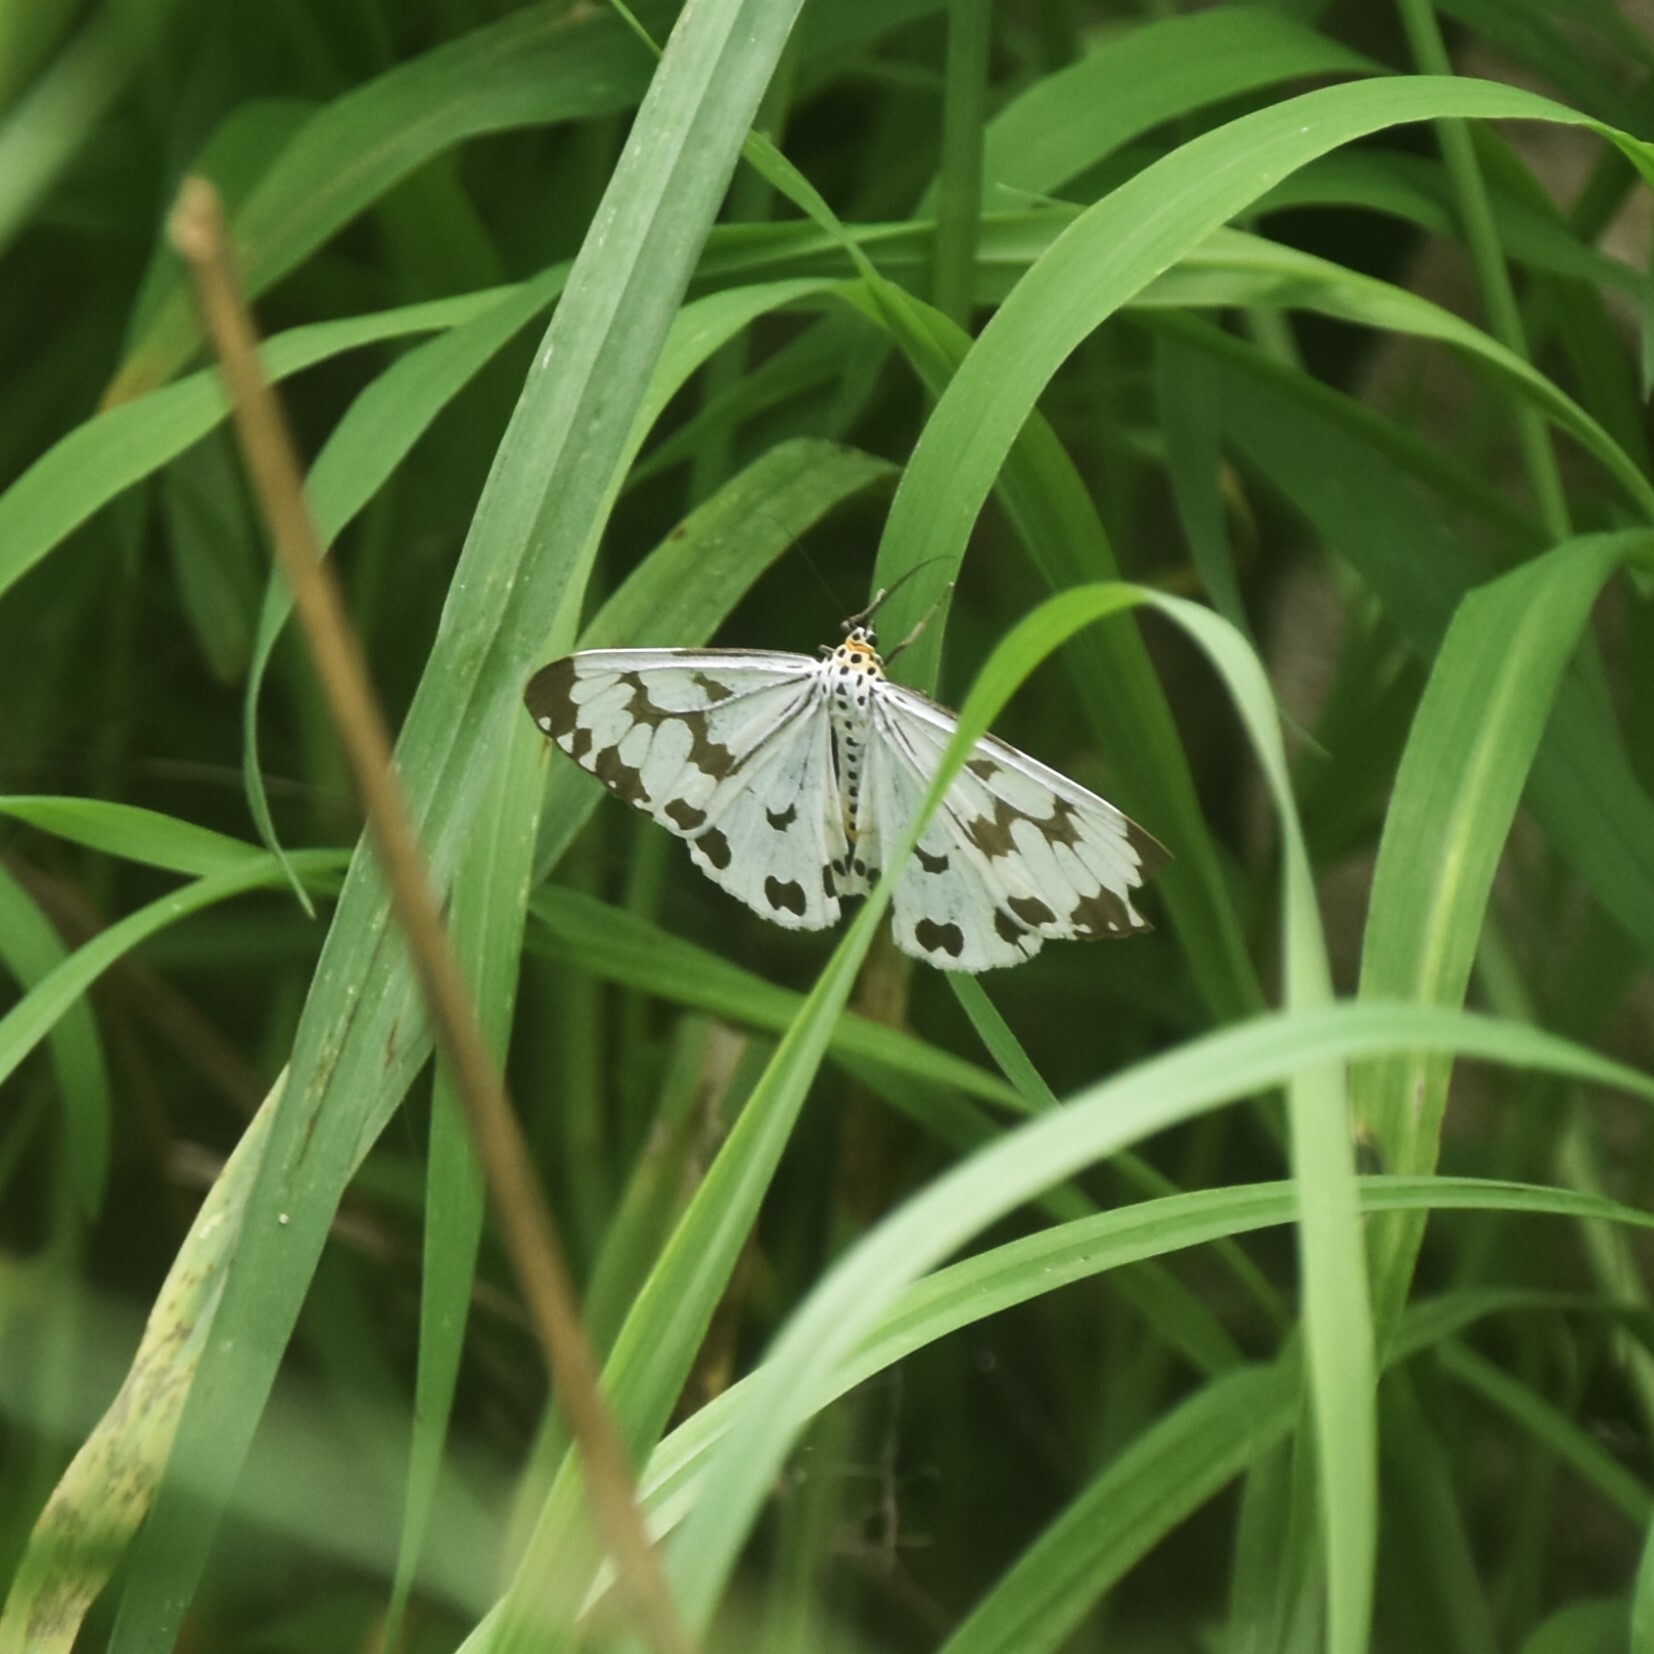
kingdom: Animalia
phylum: Arthropoda
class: Insecta
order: Lepidoptera
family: Erebidae
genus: Nyctemera
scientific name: Nyctemera adversata
